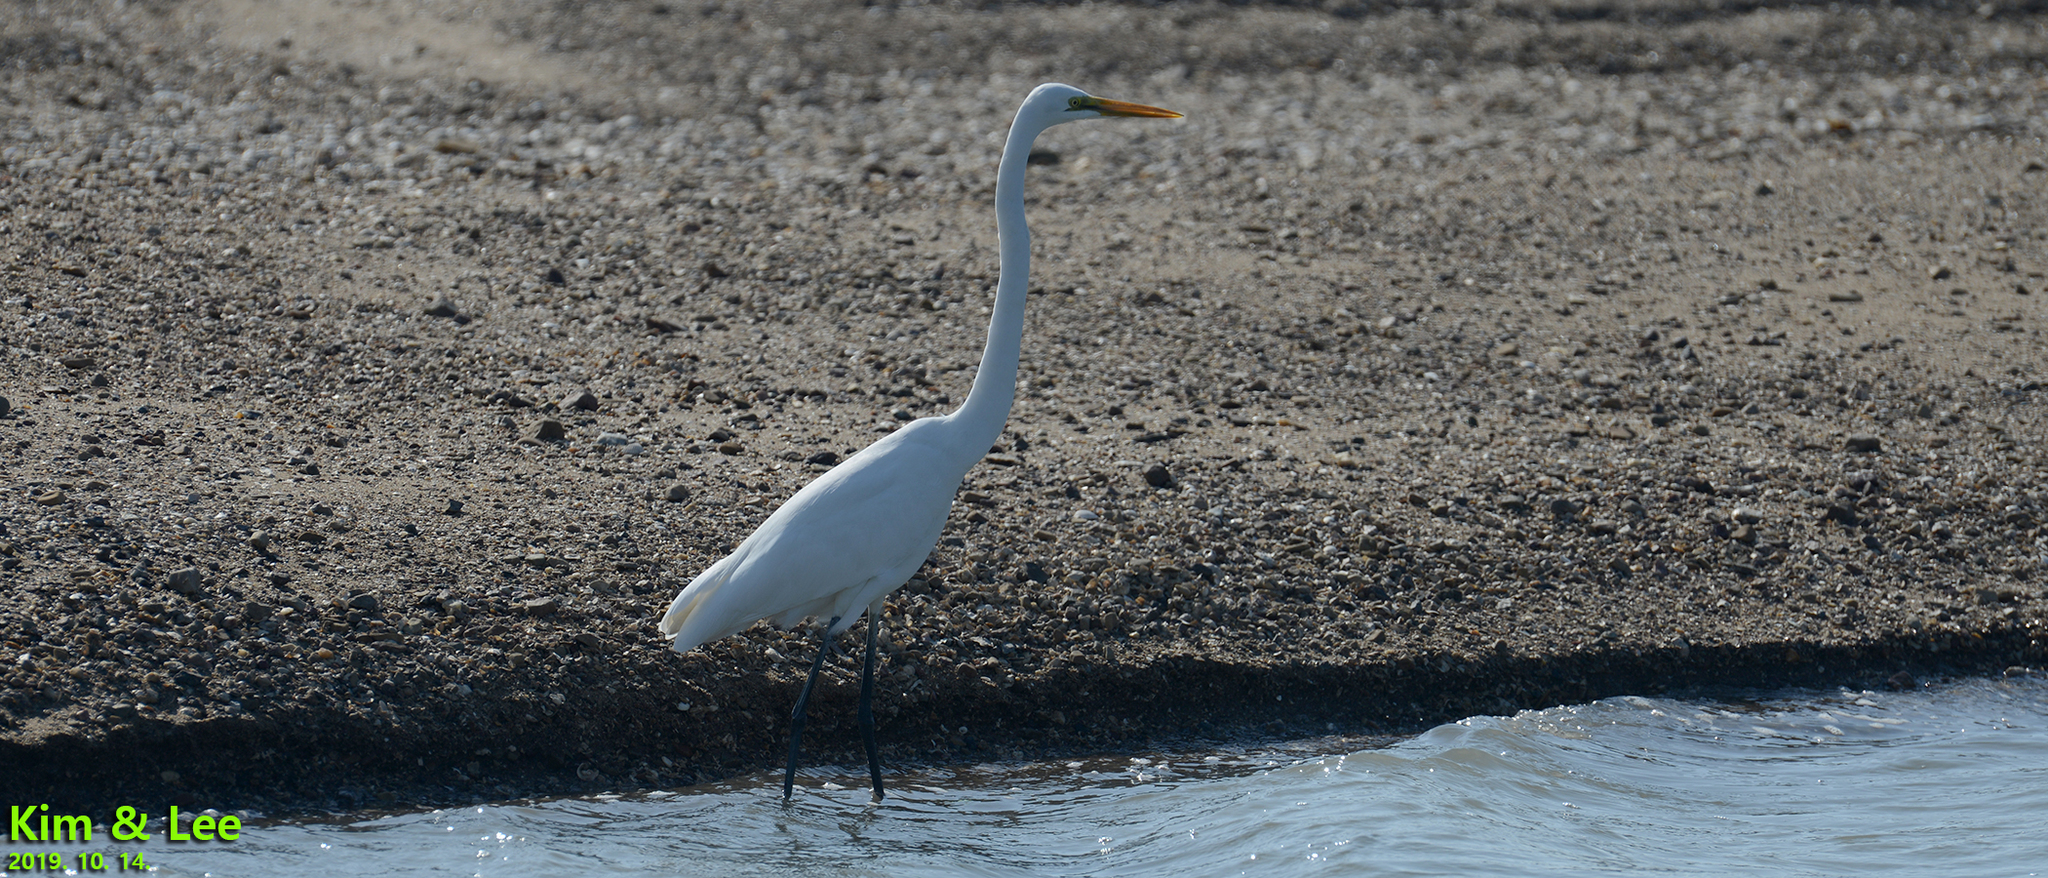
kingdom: Animalia
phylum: Chordata
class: Aves
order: Pelecaniformes
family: Ardeidae
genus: Ardea
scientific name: Ardea alba
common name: Great egret
